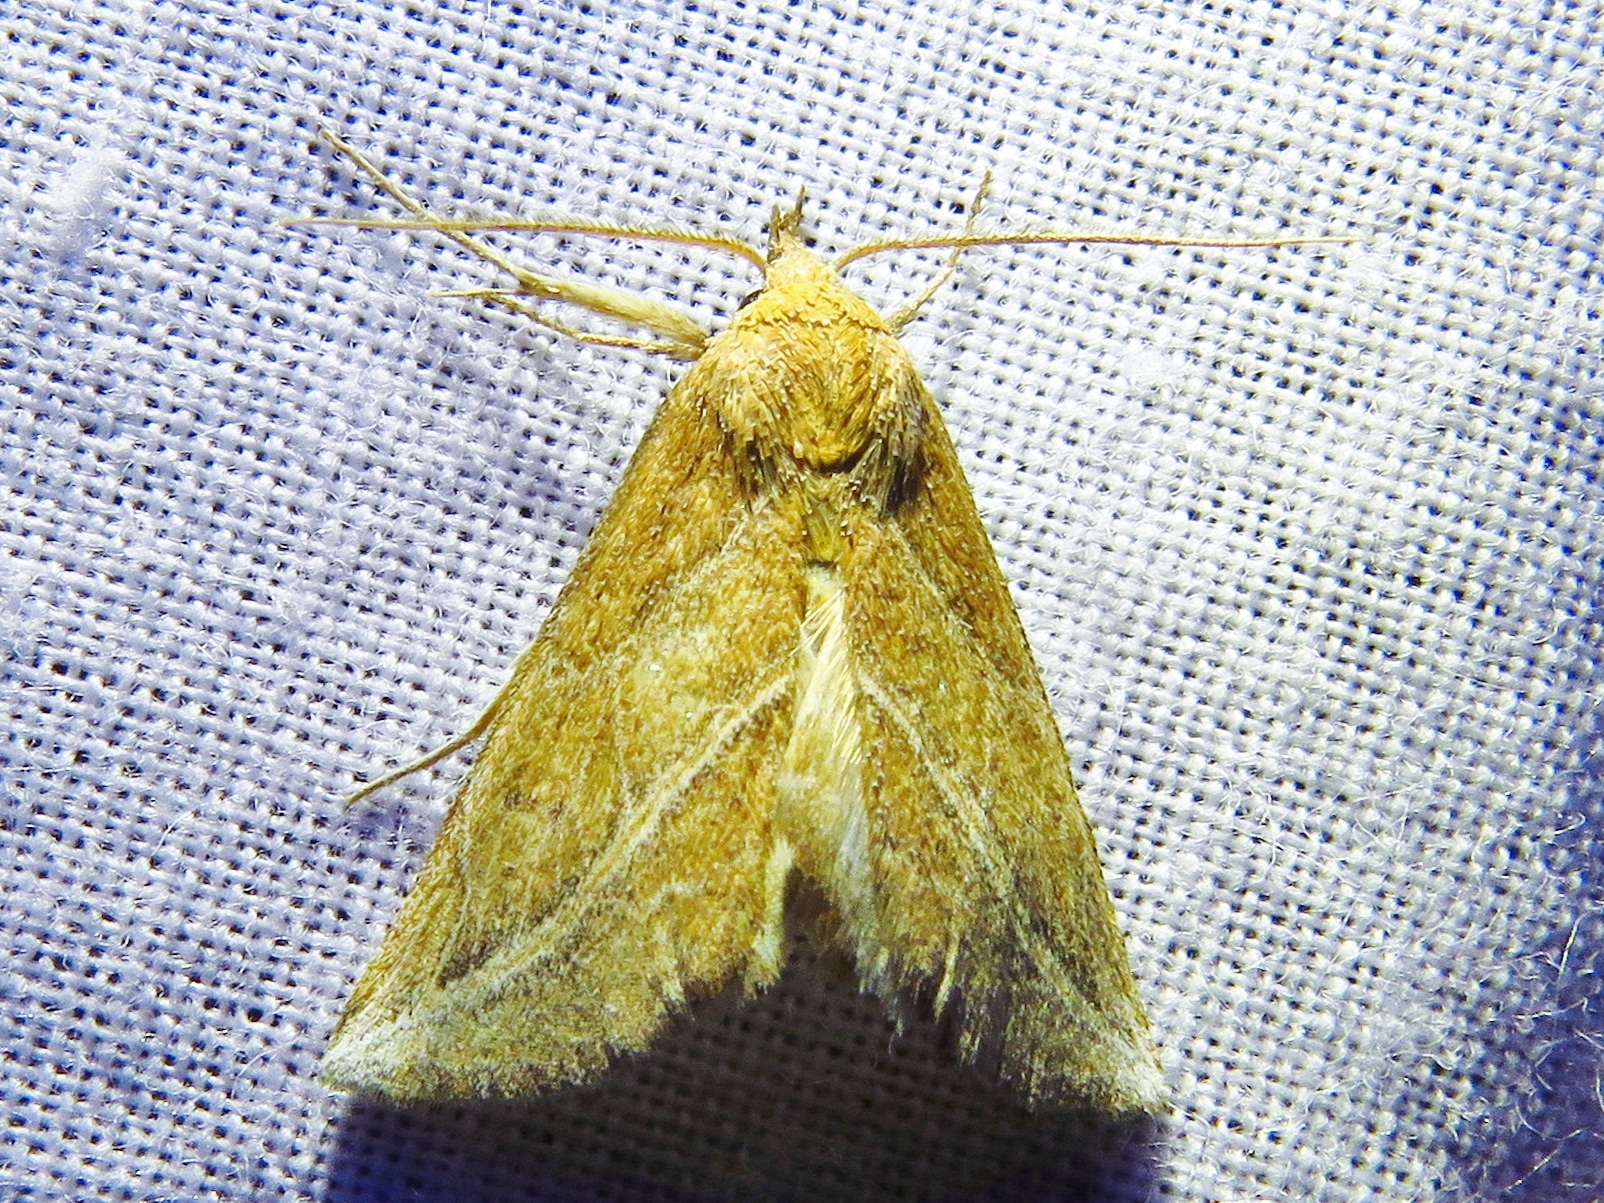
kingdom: Animalia
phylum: Arthropoda
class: Insecta
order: Lepidoptera
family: Erebidae
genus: Phyprosopus
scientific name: Phyprosopus callitrichoides
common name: Curved-lined owlet
